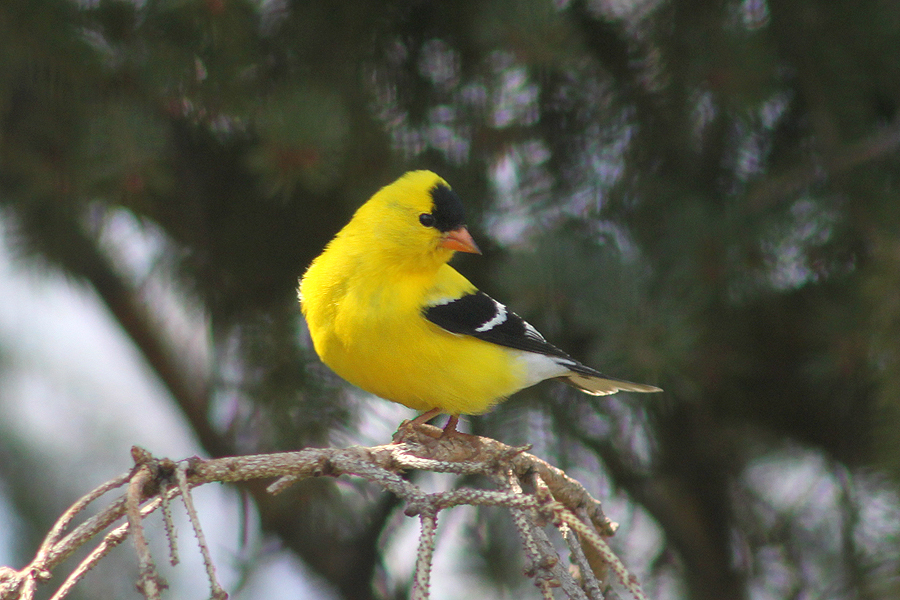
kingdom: Animalia
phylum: Chordata
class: Aves
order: Passeriformes
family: Fringillidae
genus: Spinus
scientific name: Spinus tristis
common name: American goldfinch
